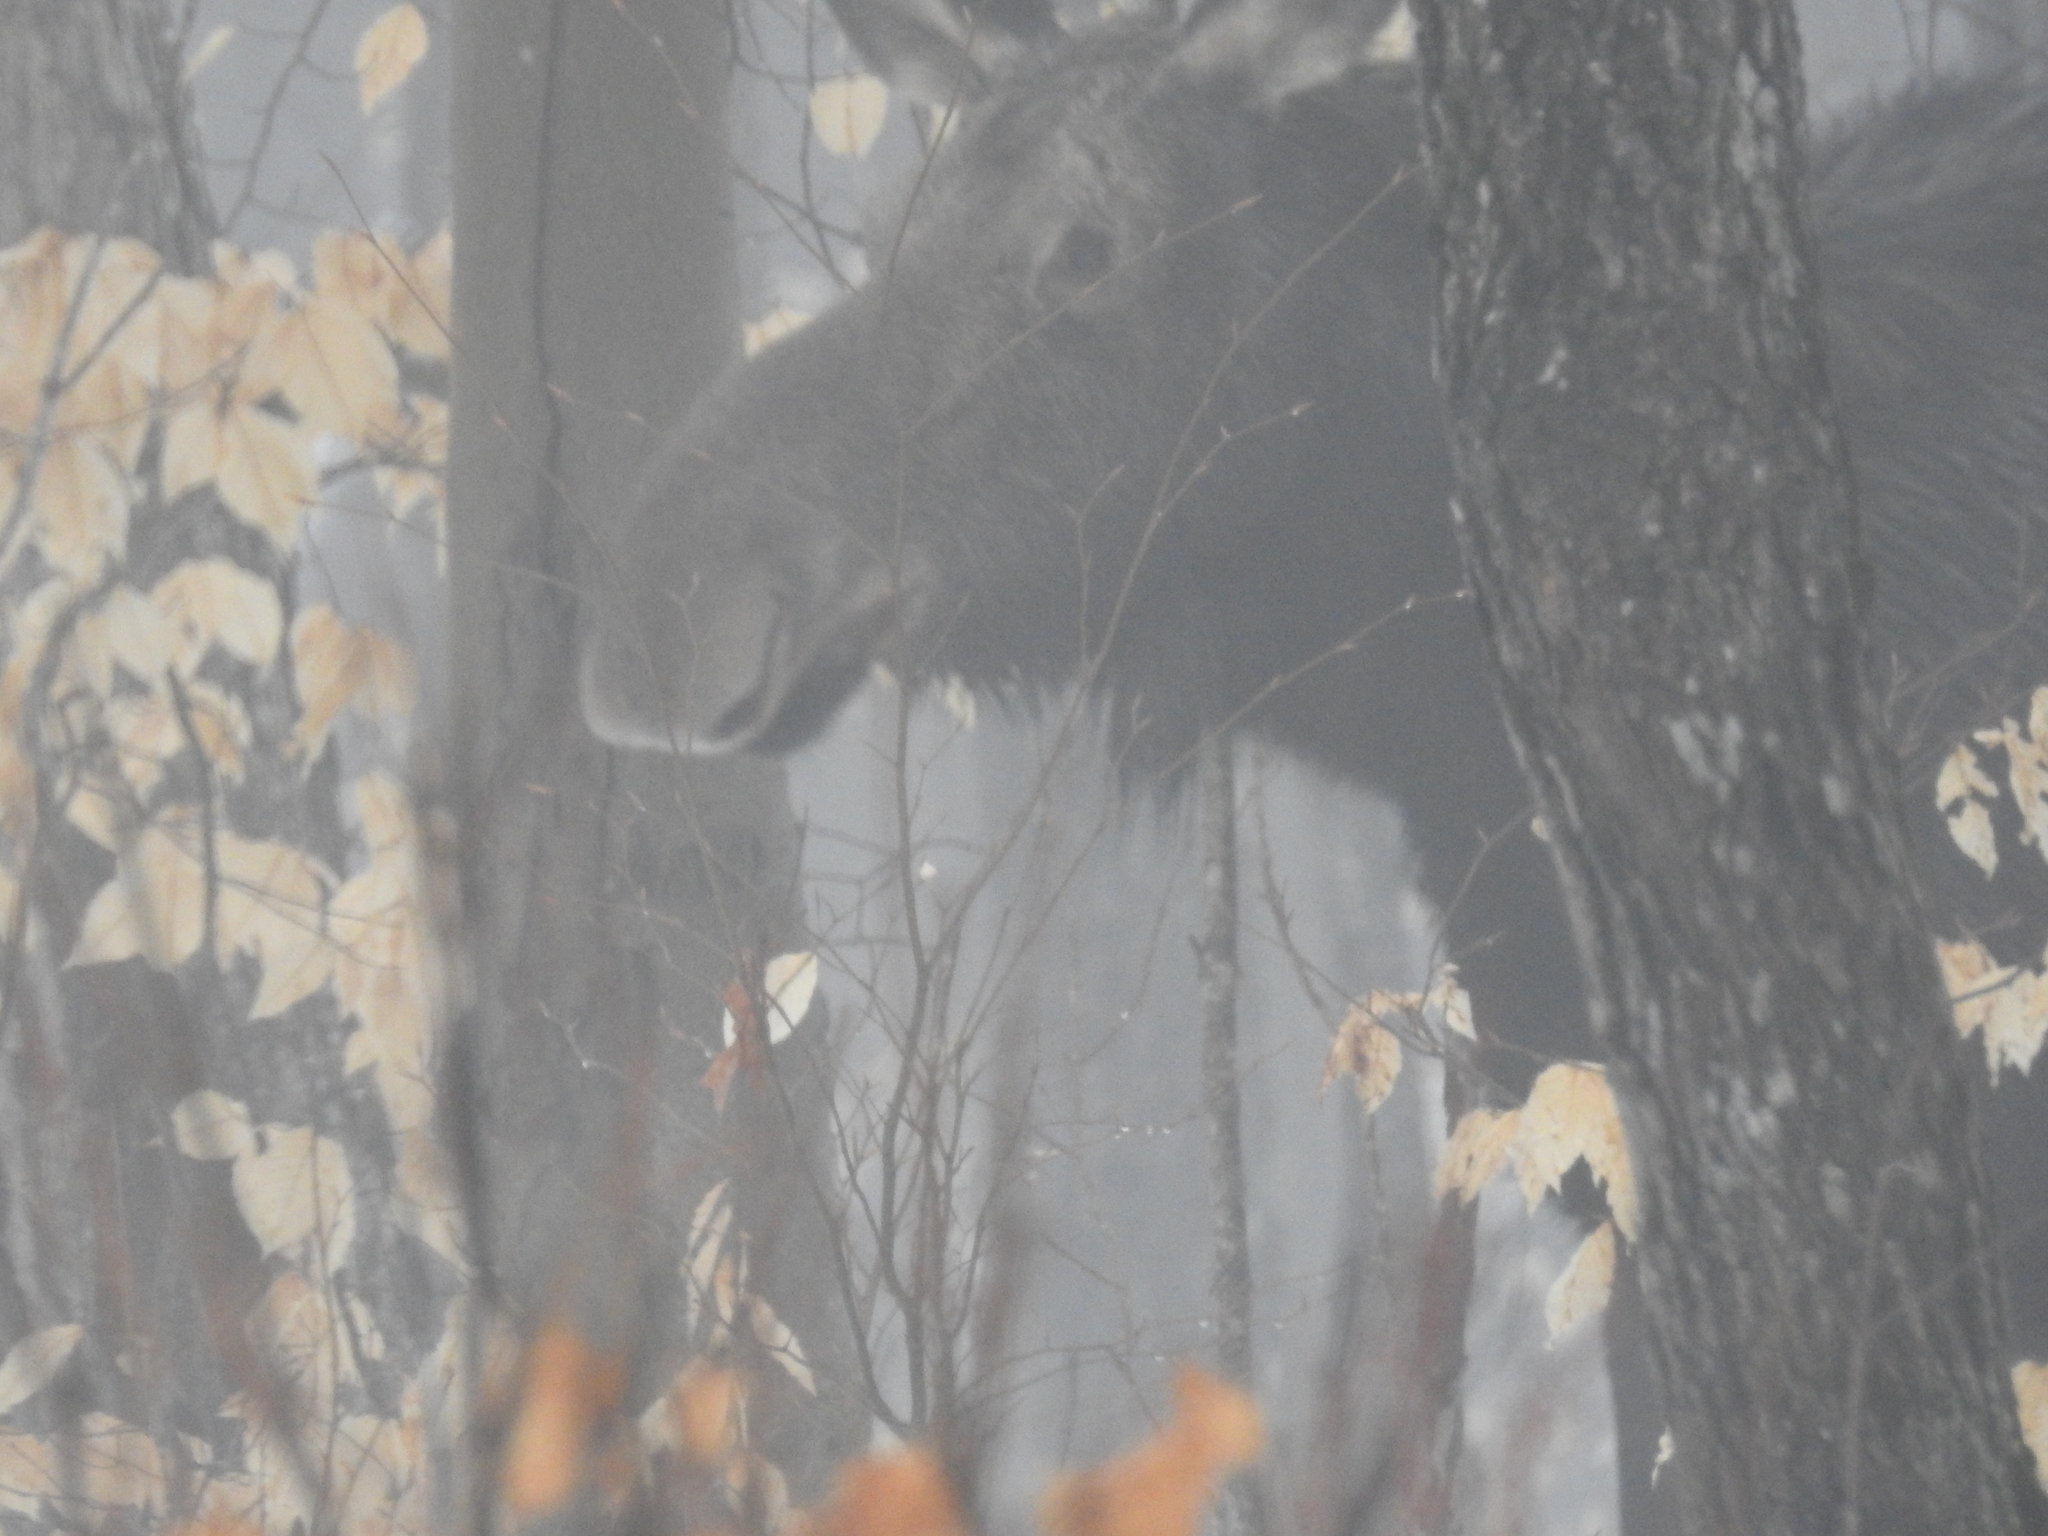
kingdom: Animalia
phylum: Chordata
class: Mammalia
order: Artiodactyla
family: Cervidae
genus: Alces
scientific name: Alces alces
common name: Moose
